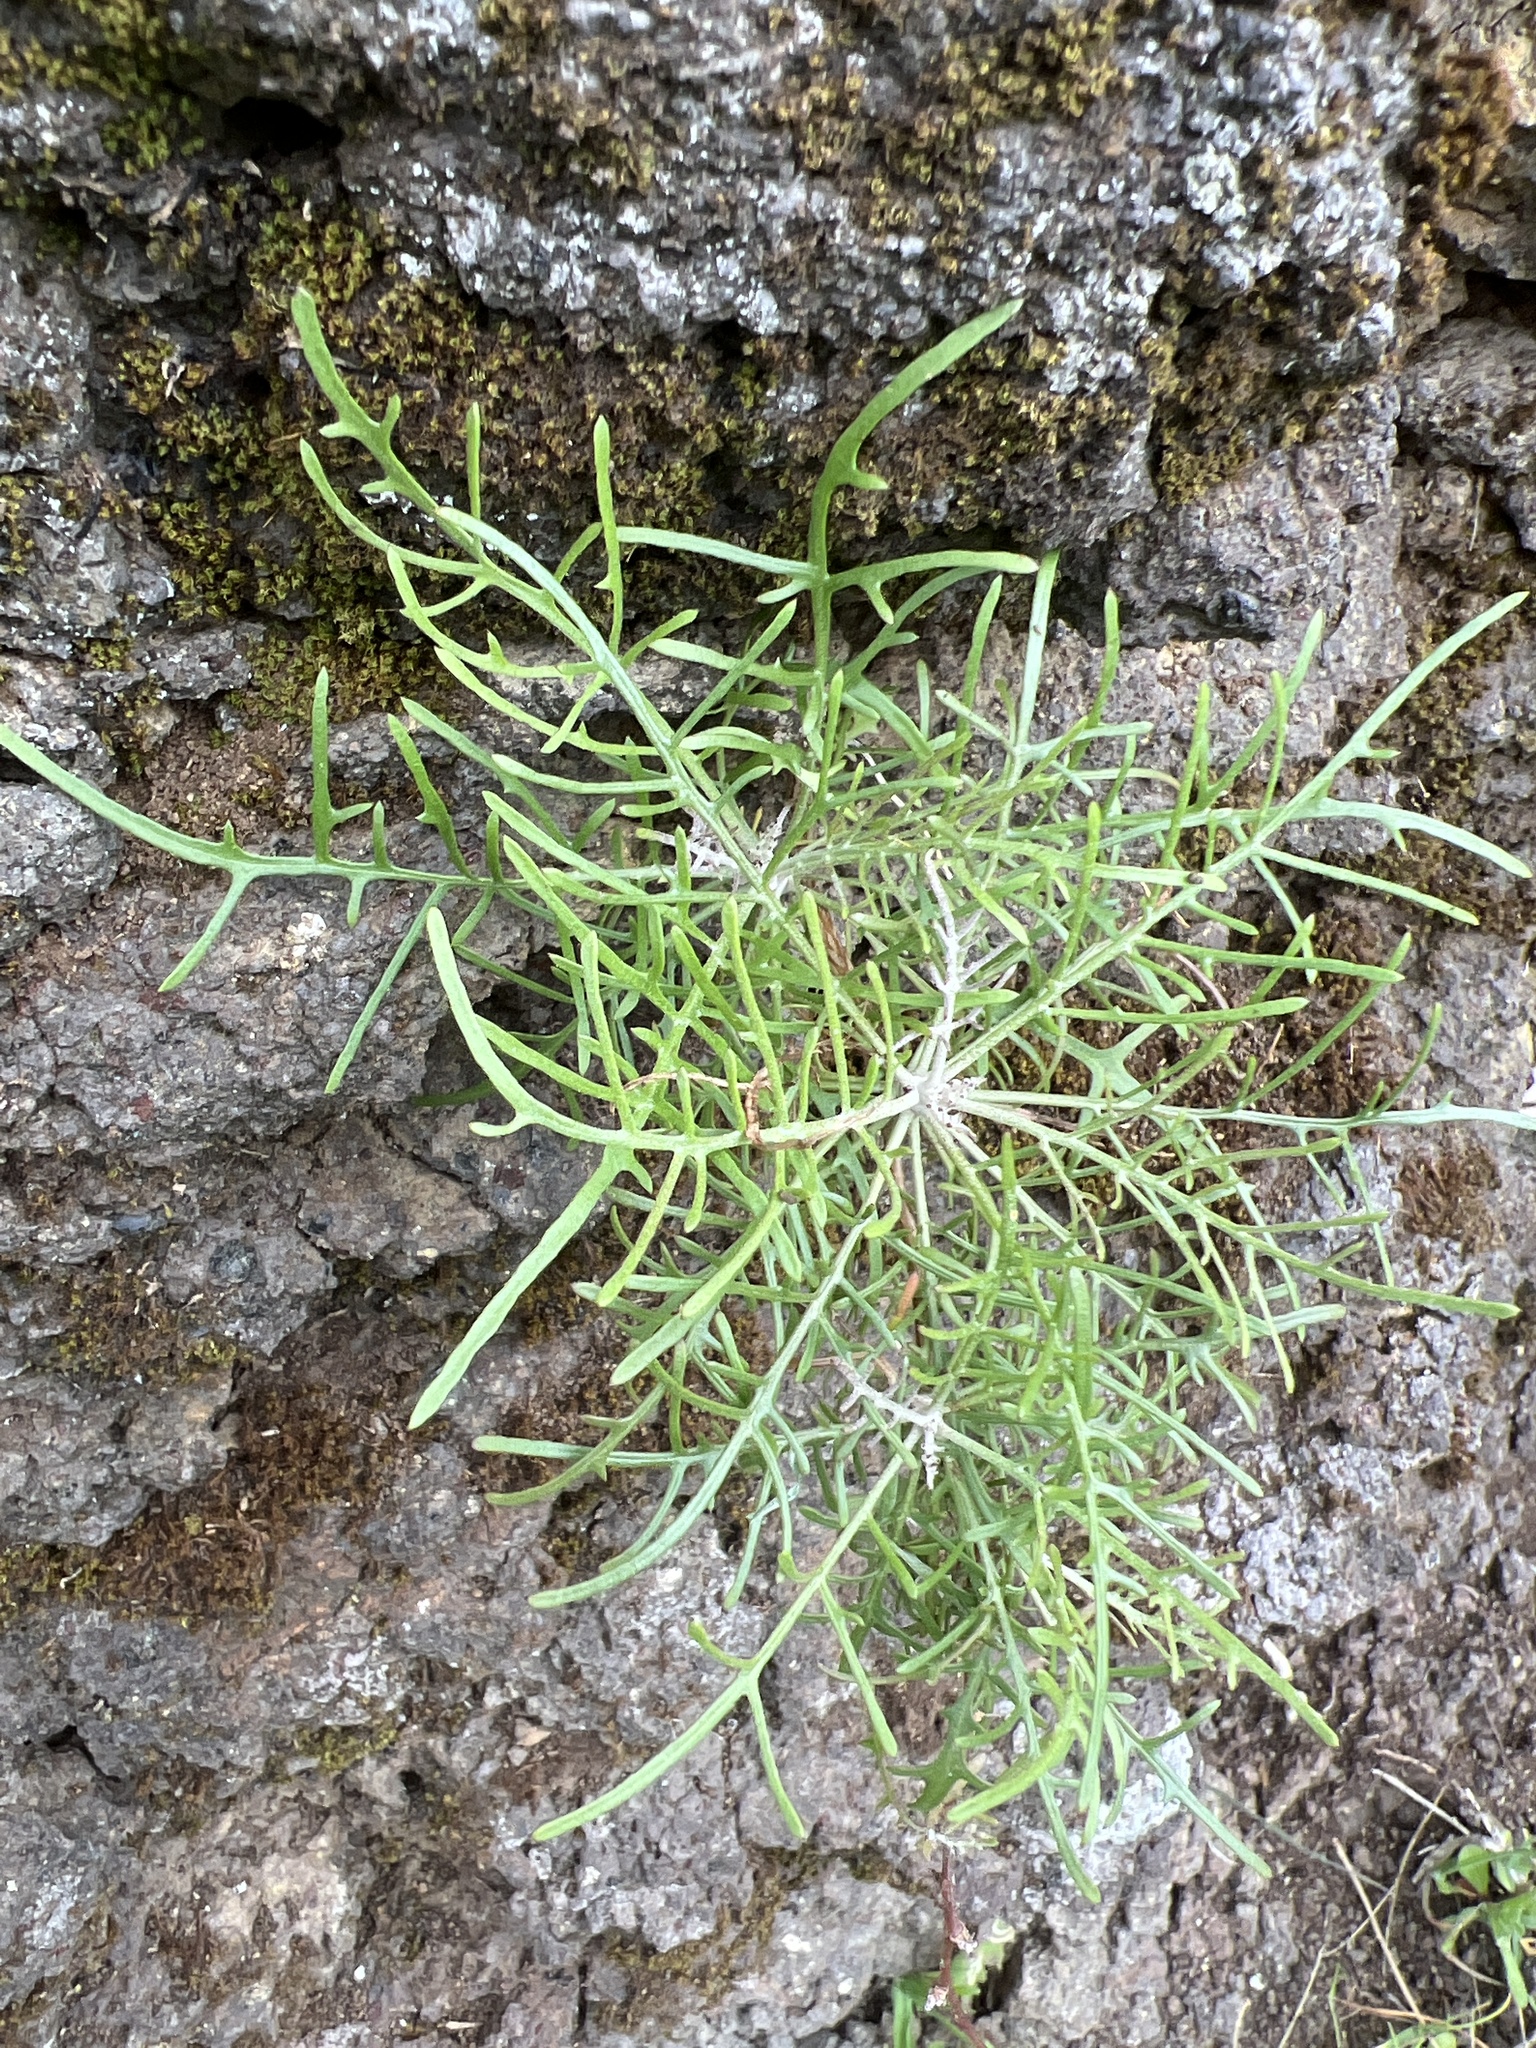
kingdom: Plantae
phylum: Tracheophyta
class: Magnoliopsida
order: Asterales
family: Asteraceae
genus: Tolpis
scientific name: Tolpis succulenta
